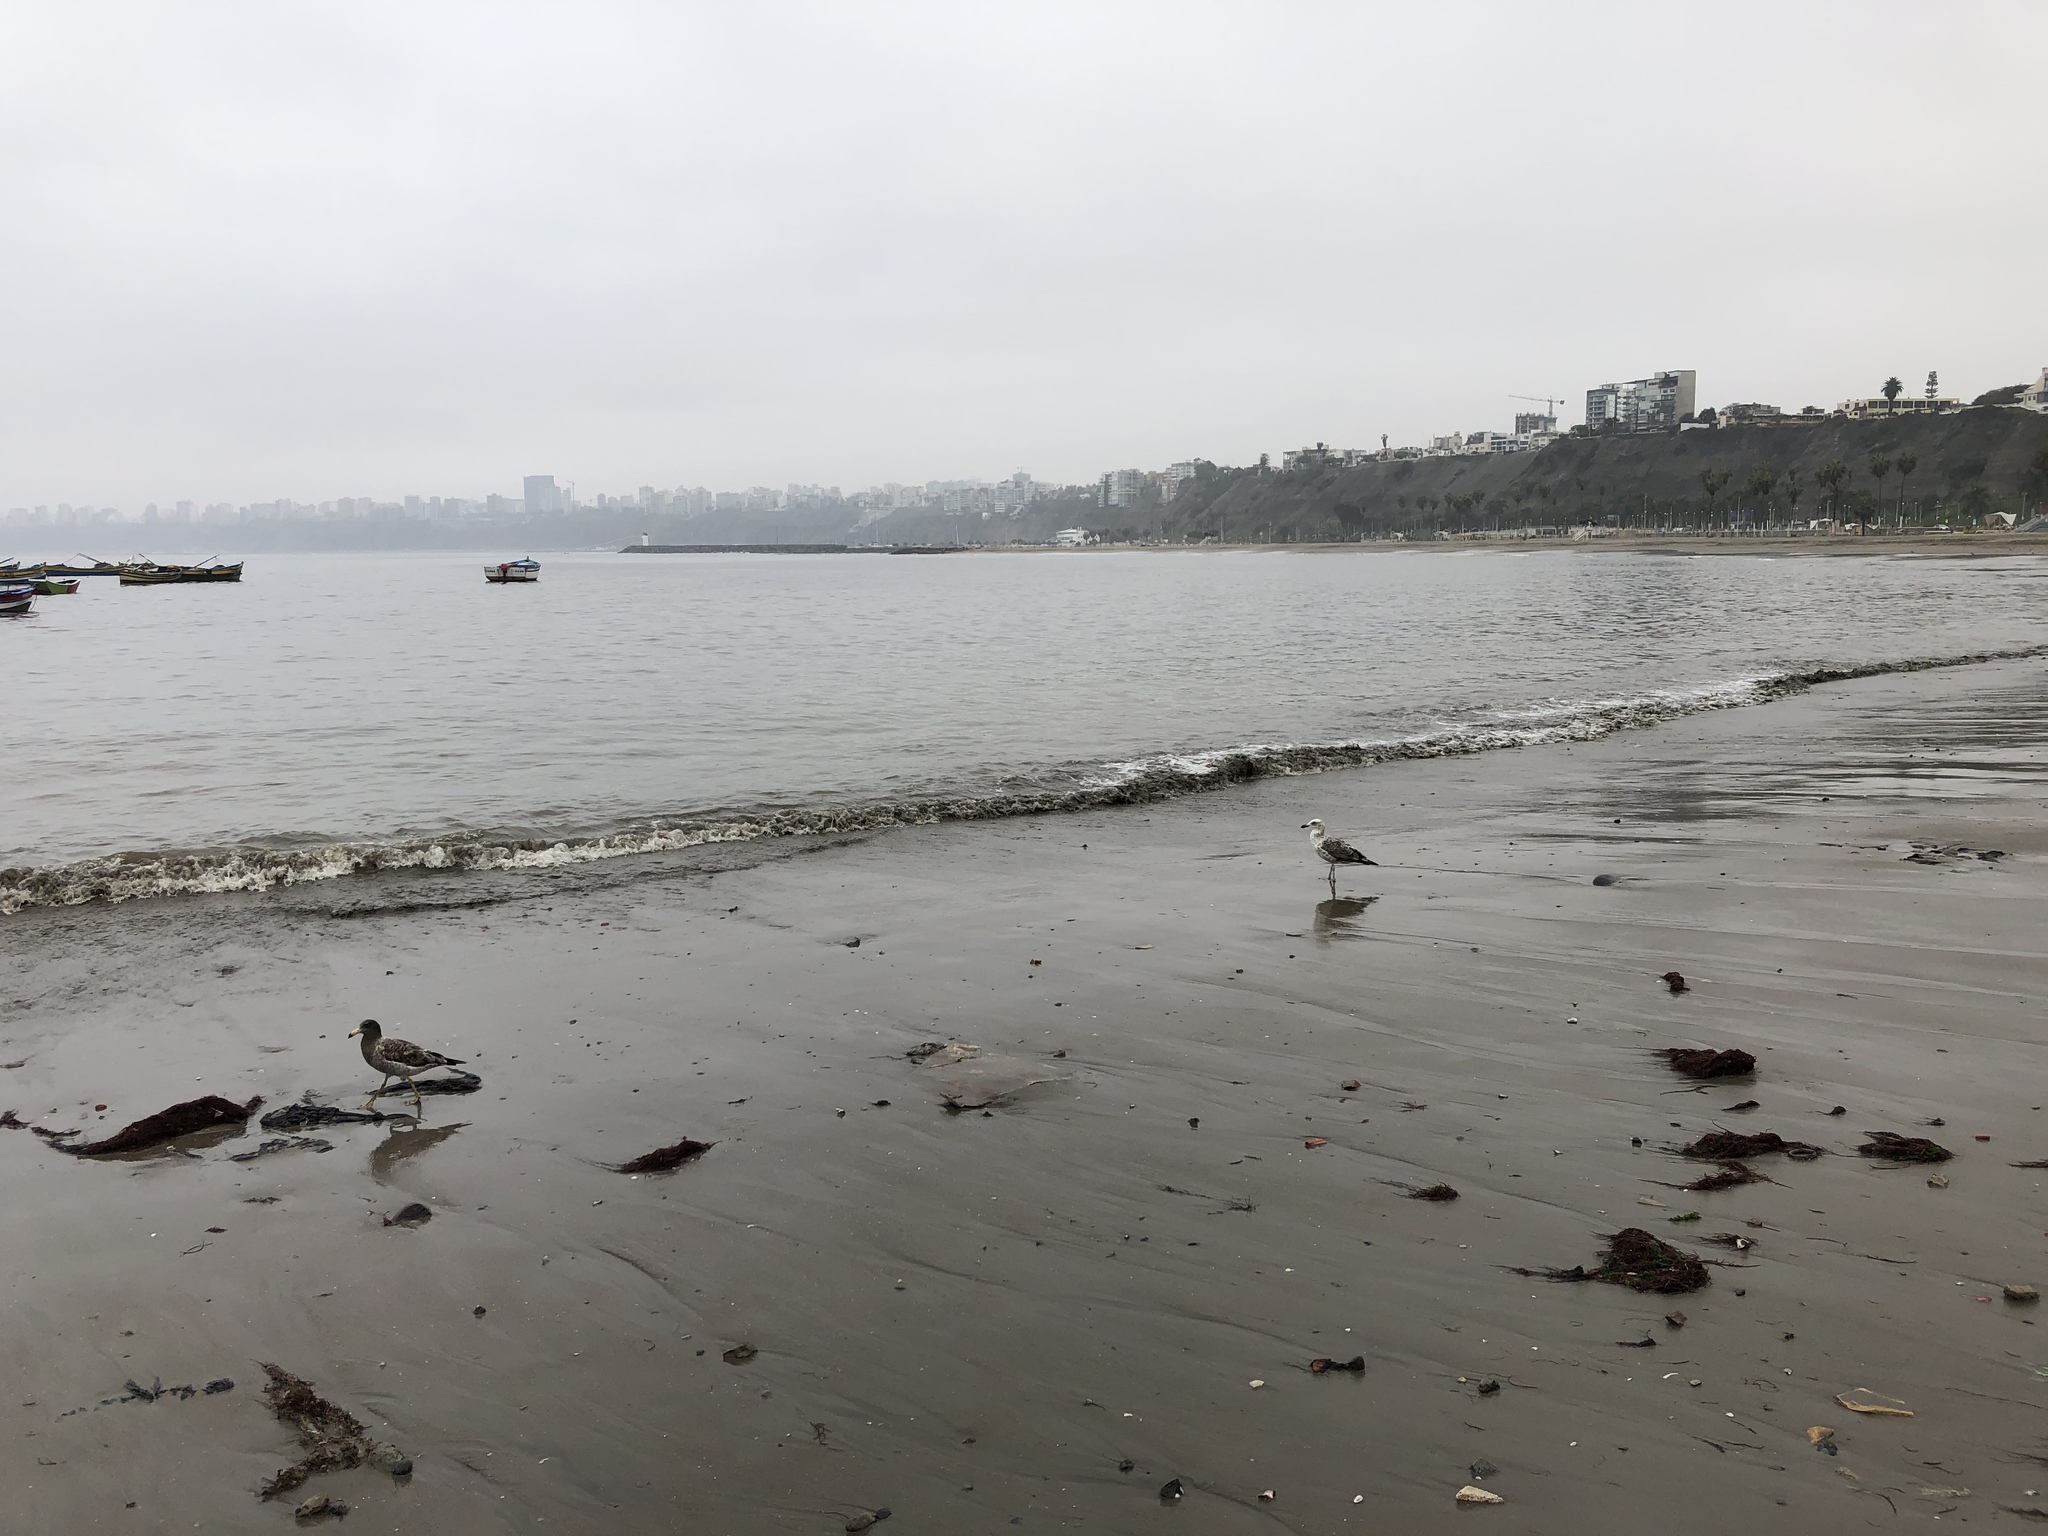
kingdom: Animalia
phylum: Chordata
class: Aves
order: Charadriiformes
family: Laridae
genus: Larus
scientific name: Larus belcheri
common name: Belcher's gull
